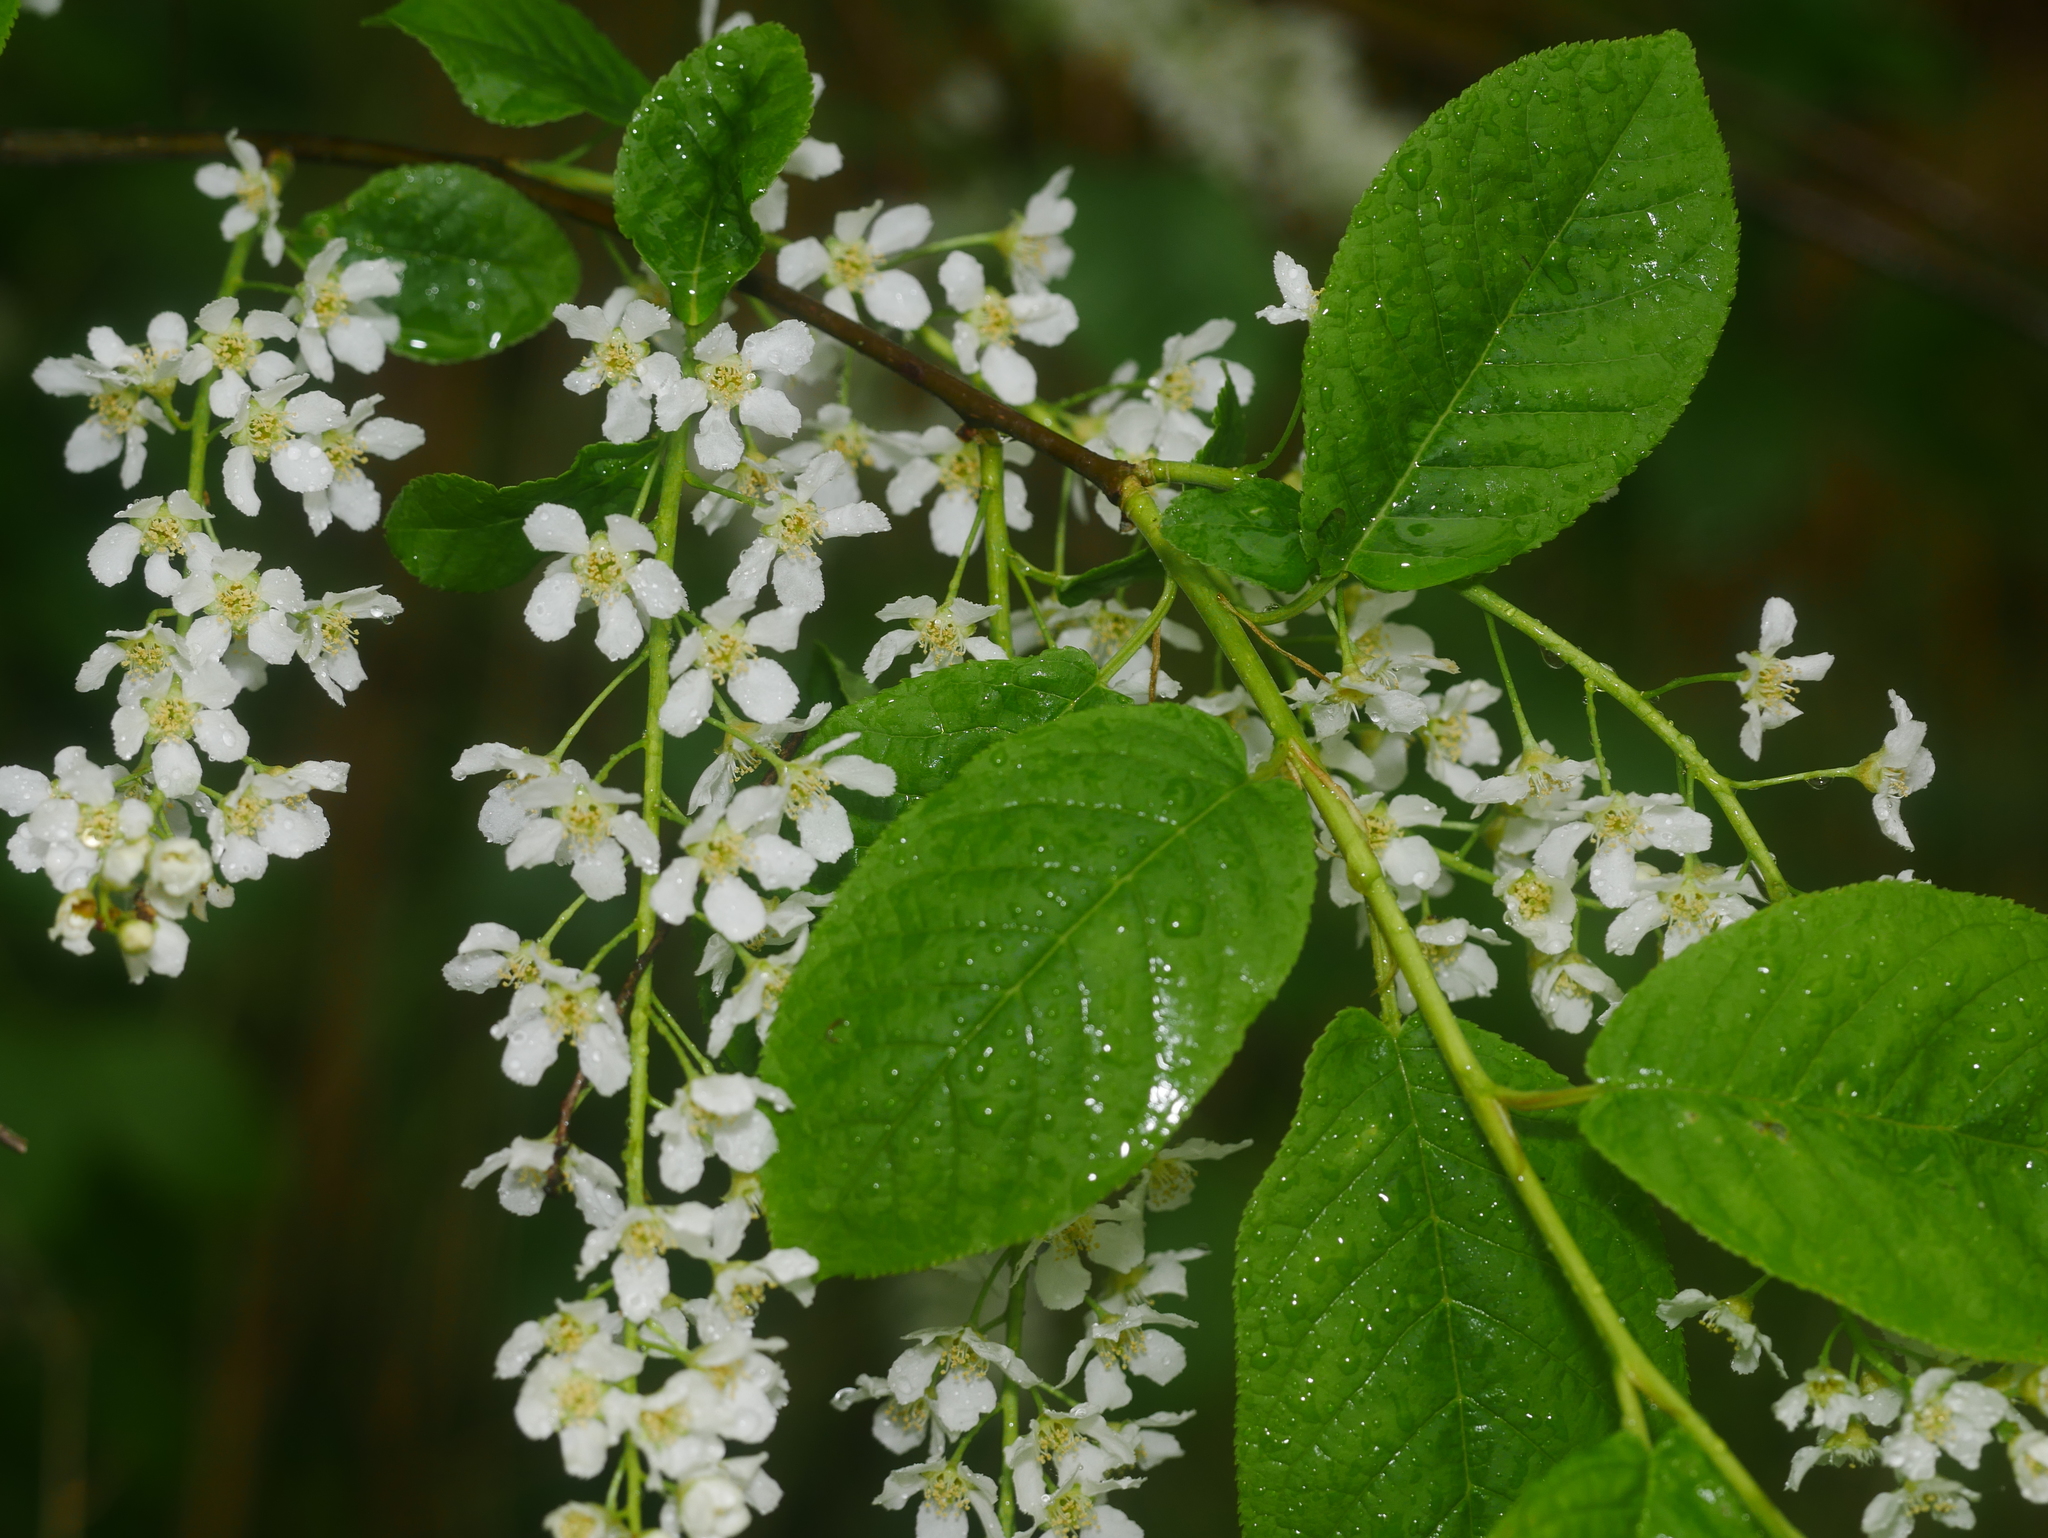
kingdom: Plantae
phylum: Tracheophyta
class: Magnoliopsida
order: Rosales
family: Rosaceae
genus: Prunus
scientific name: Prunus padus
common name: Bird cherry
